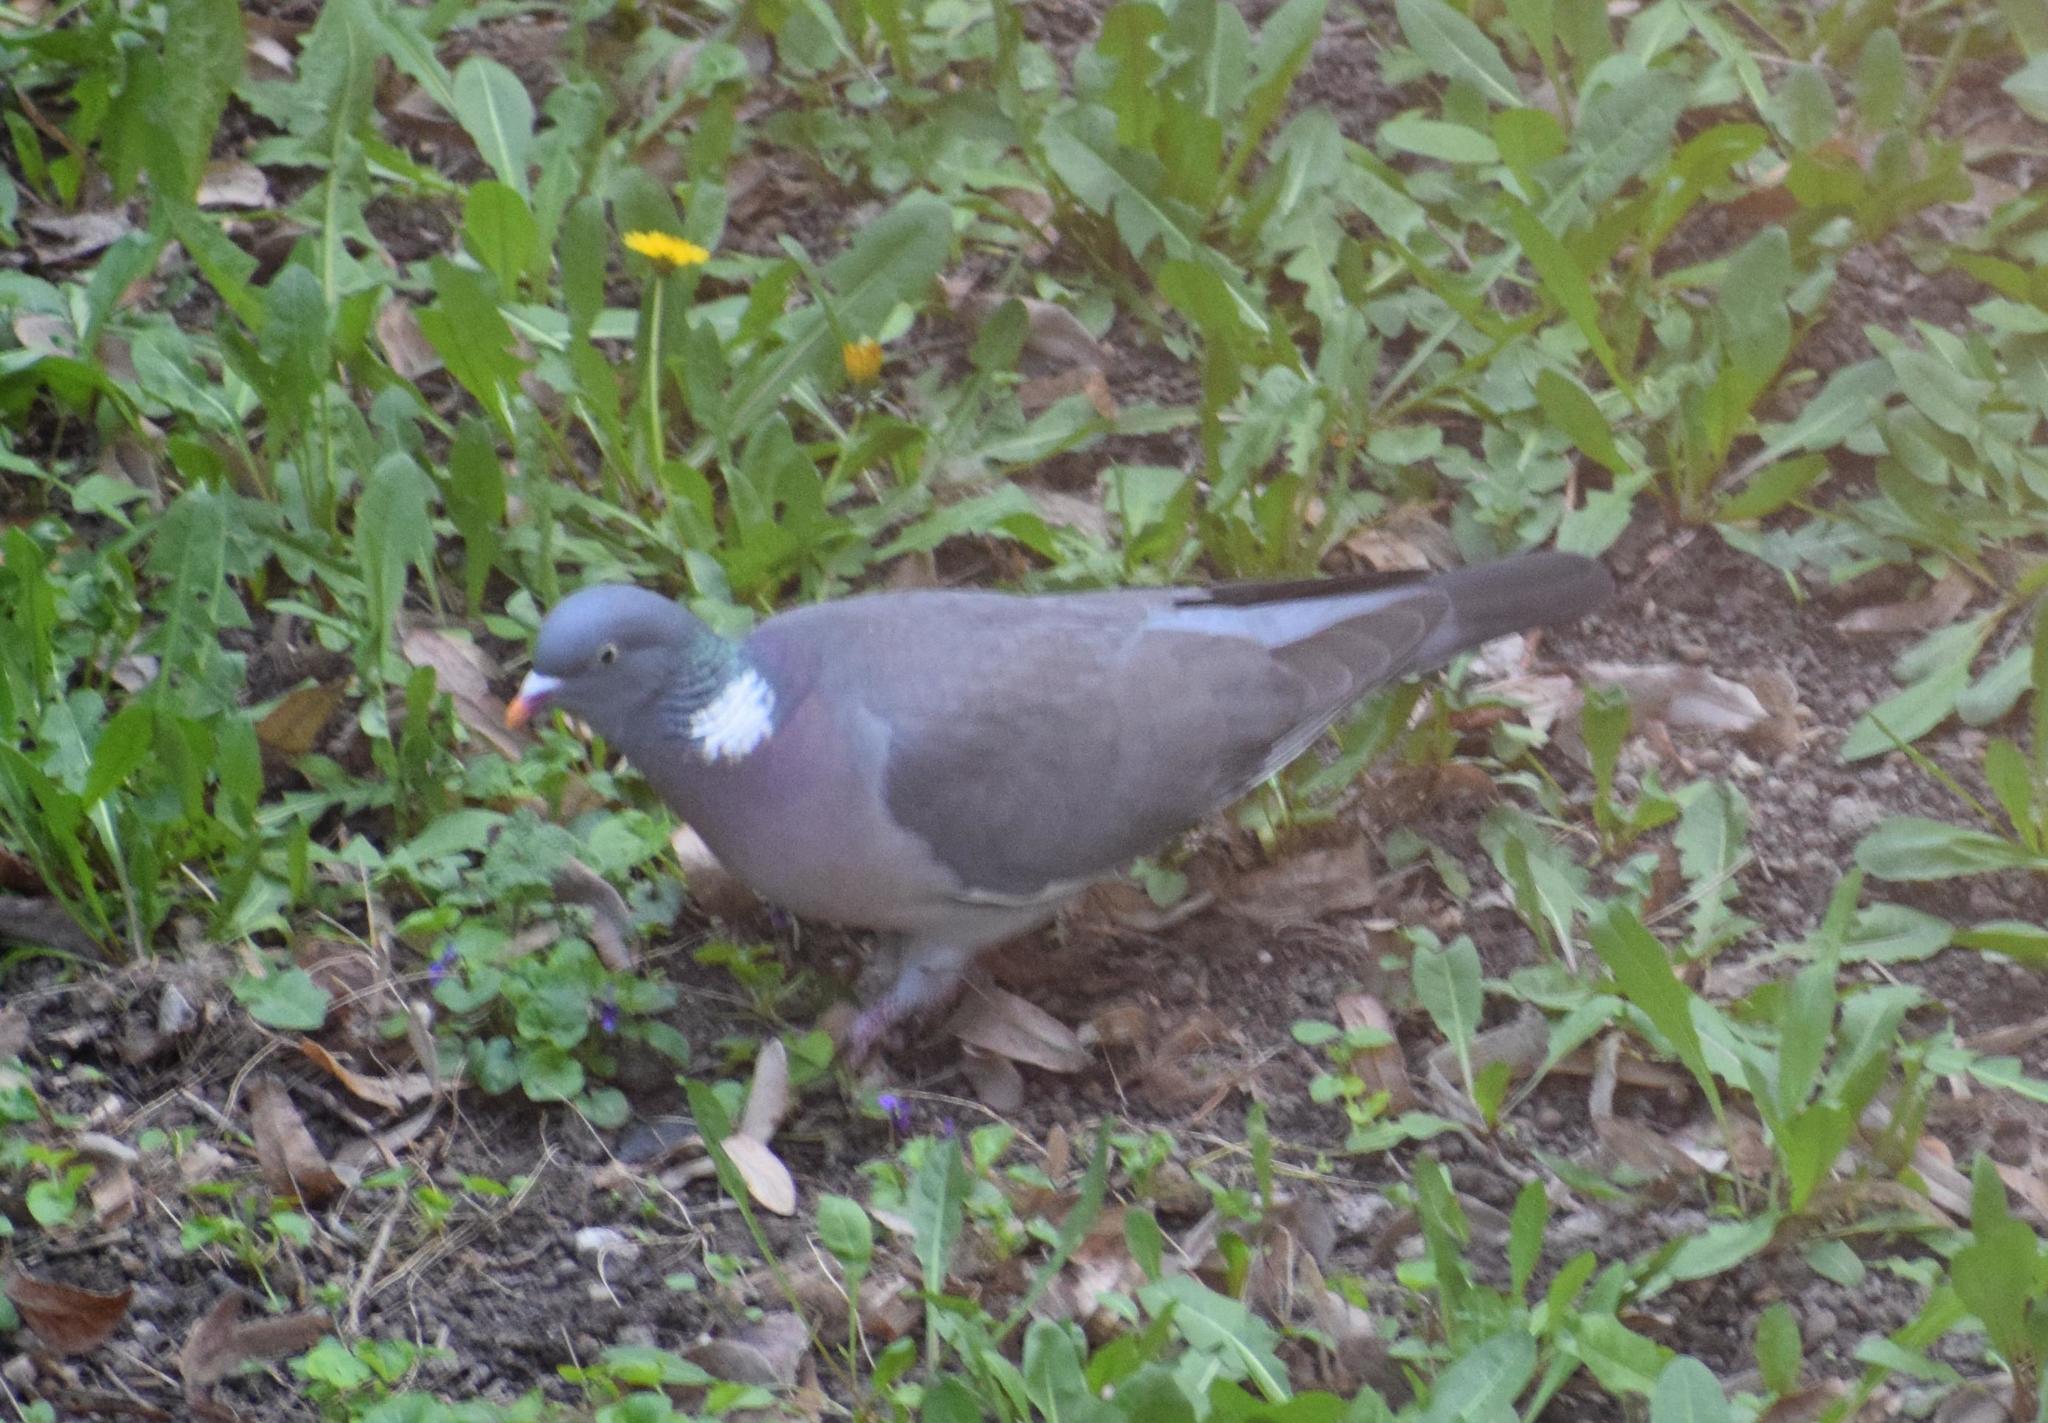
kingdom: Animalia
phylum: Chordata
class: Aves
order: Columbiformes
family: Columbidae
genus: Columba
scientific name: Columba palumbus
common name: Common wood pigeon
